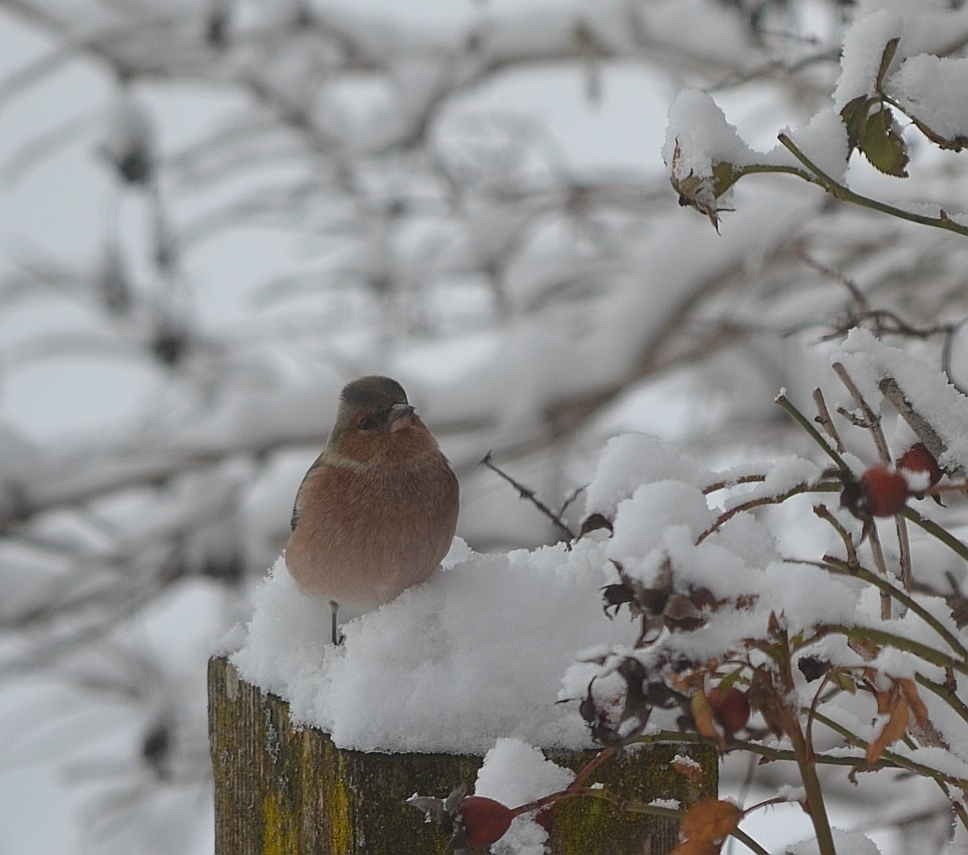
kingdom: Animalia
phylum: Chordata
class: Aves
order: Passeriformes
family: Fringillidae
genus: Fringilla
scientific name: Fringilla coelebs
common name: Common chaffinch
